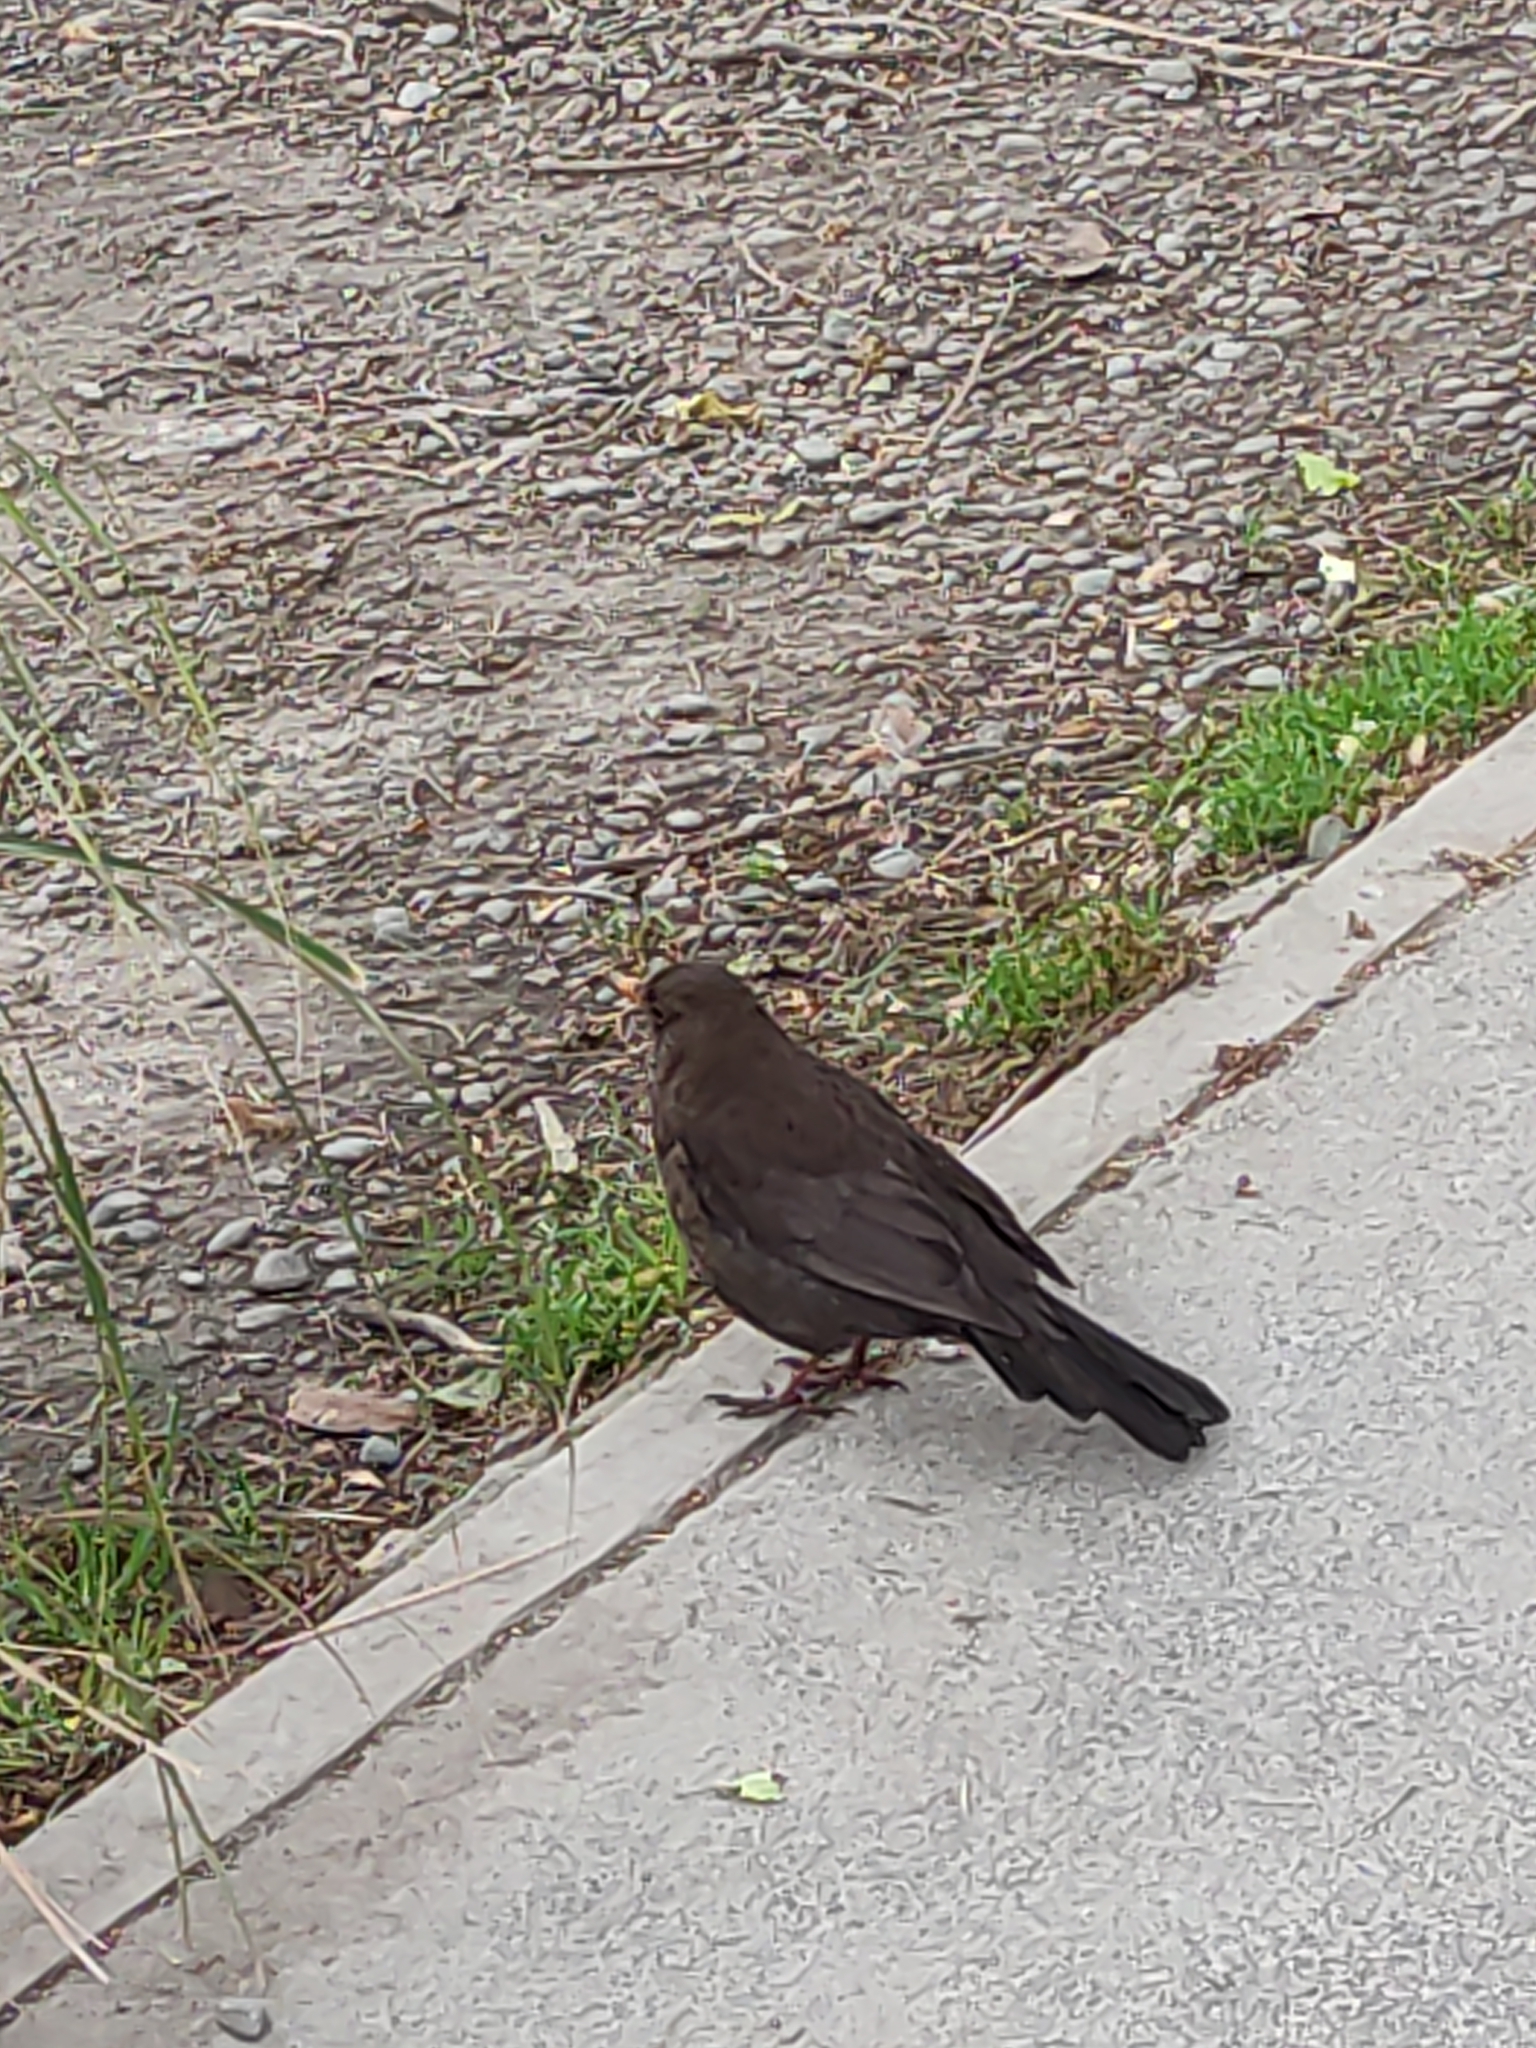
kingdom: Animalia
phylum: Chordata
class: Aves
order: Passeriformes
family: Turdidae
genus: Turdus
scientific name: Turdus merula
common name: Common blackbird
